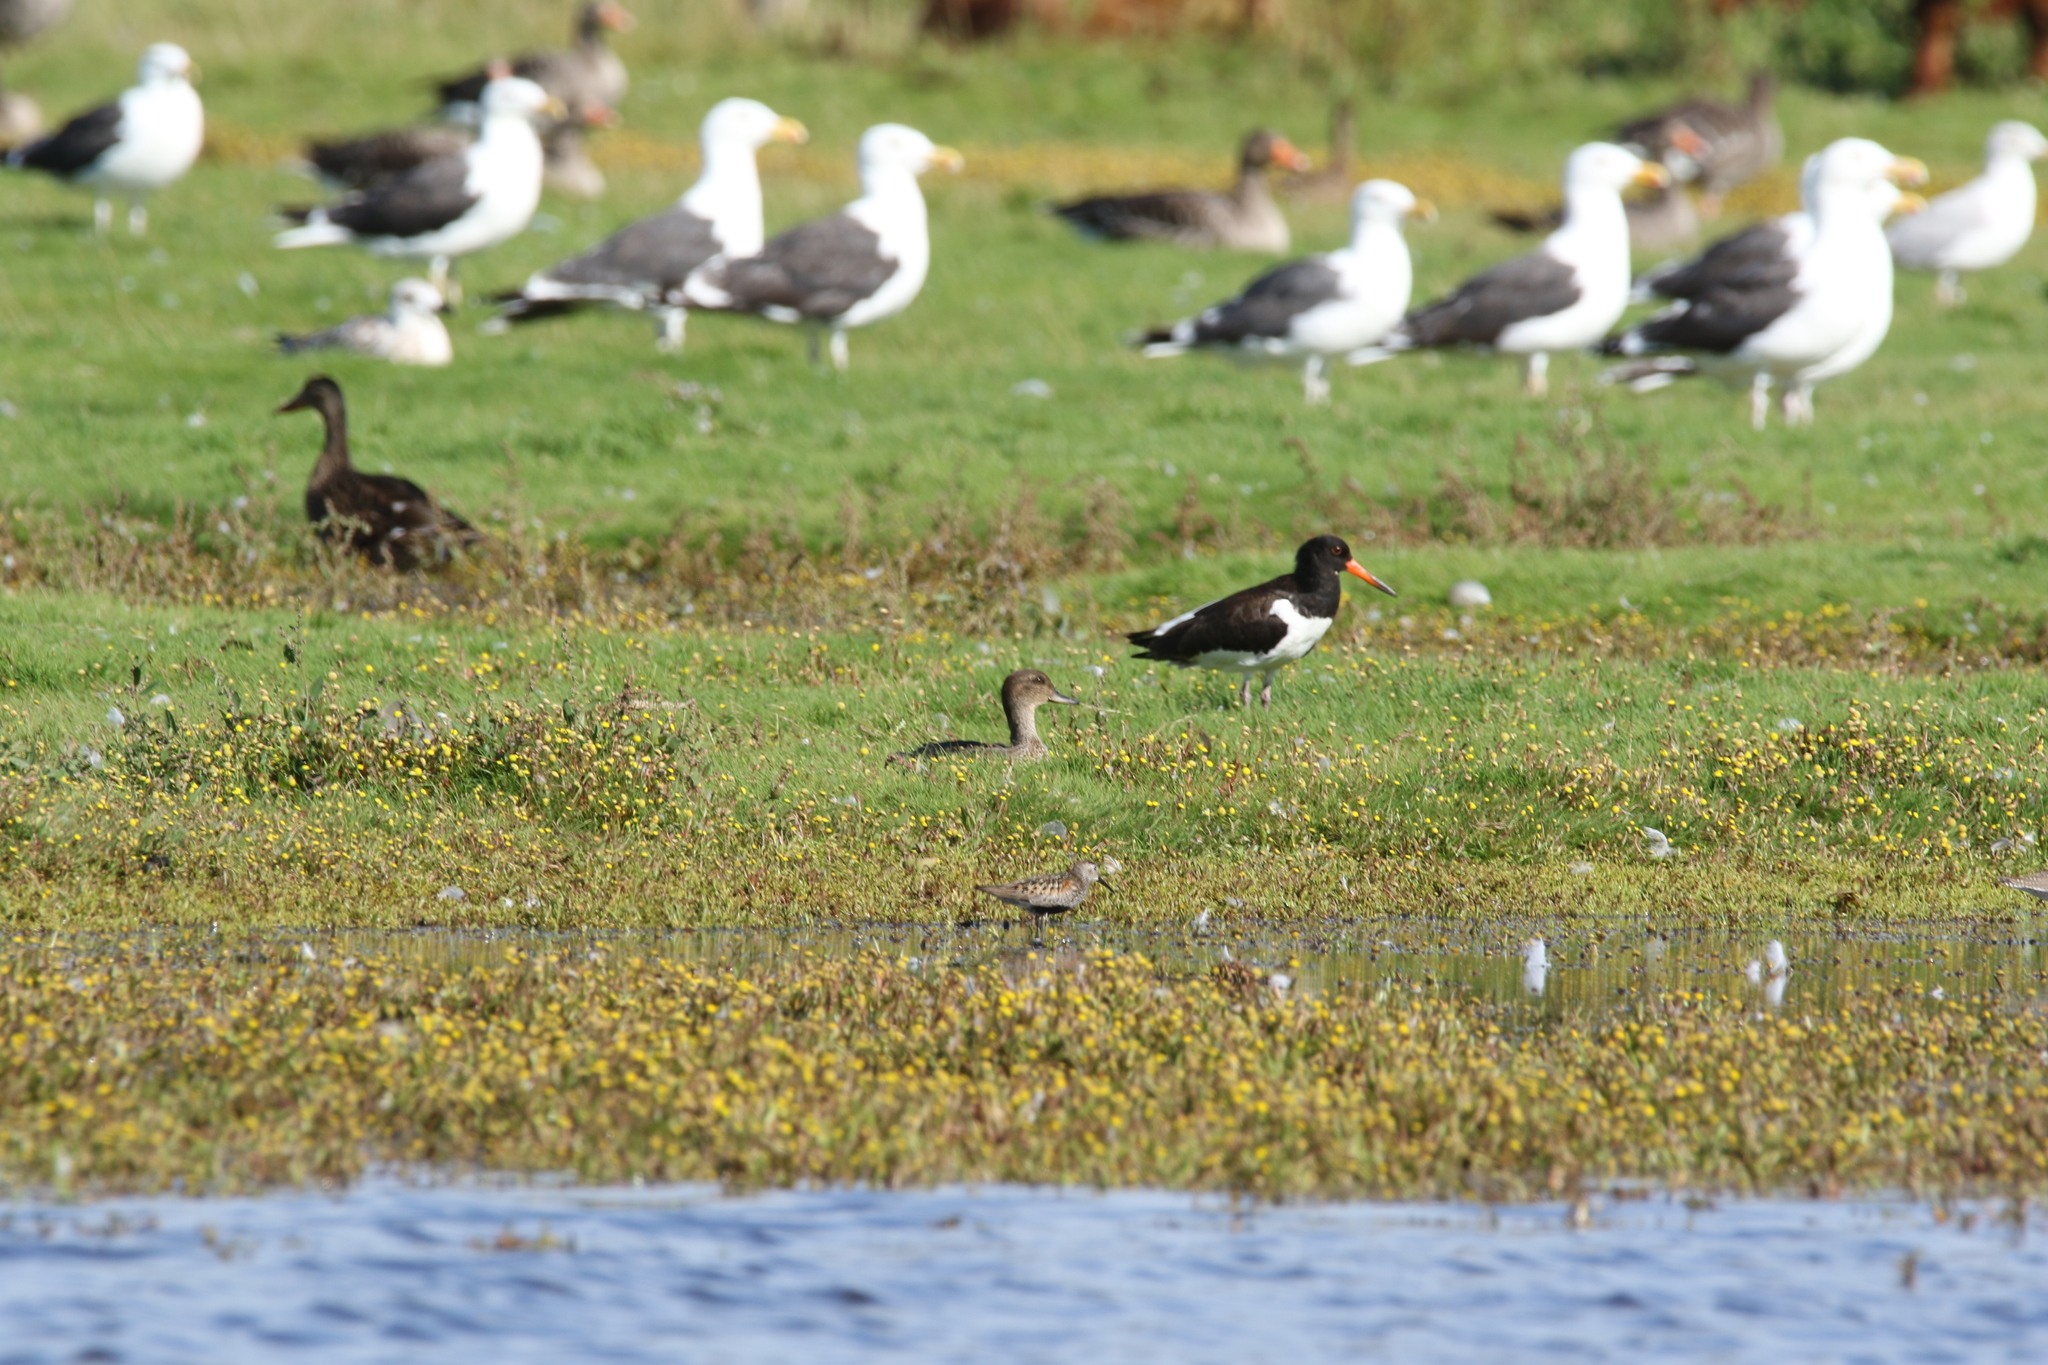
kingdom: Animalia
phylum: Chordata
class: Aves
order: Anseriformes
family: Anatidae
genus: Anas
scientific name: Anas crecca
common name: Eurasian teal
